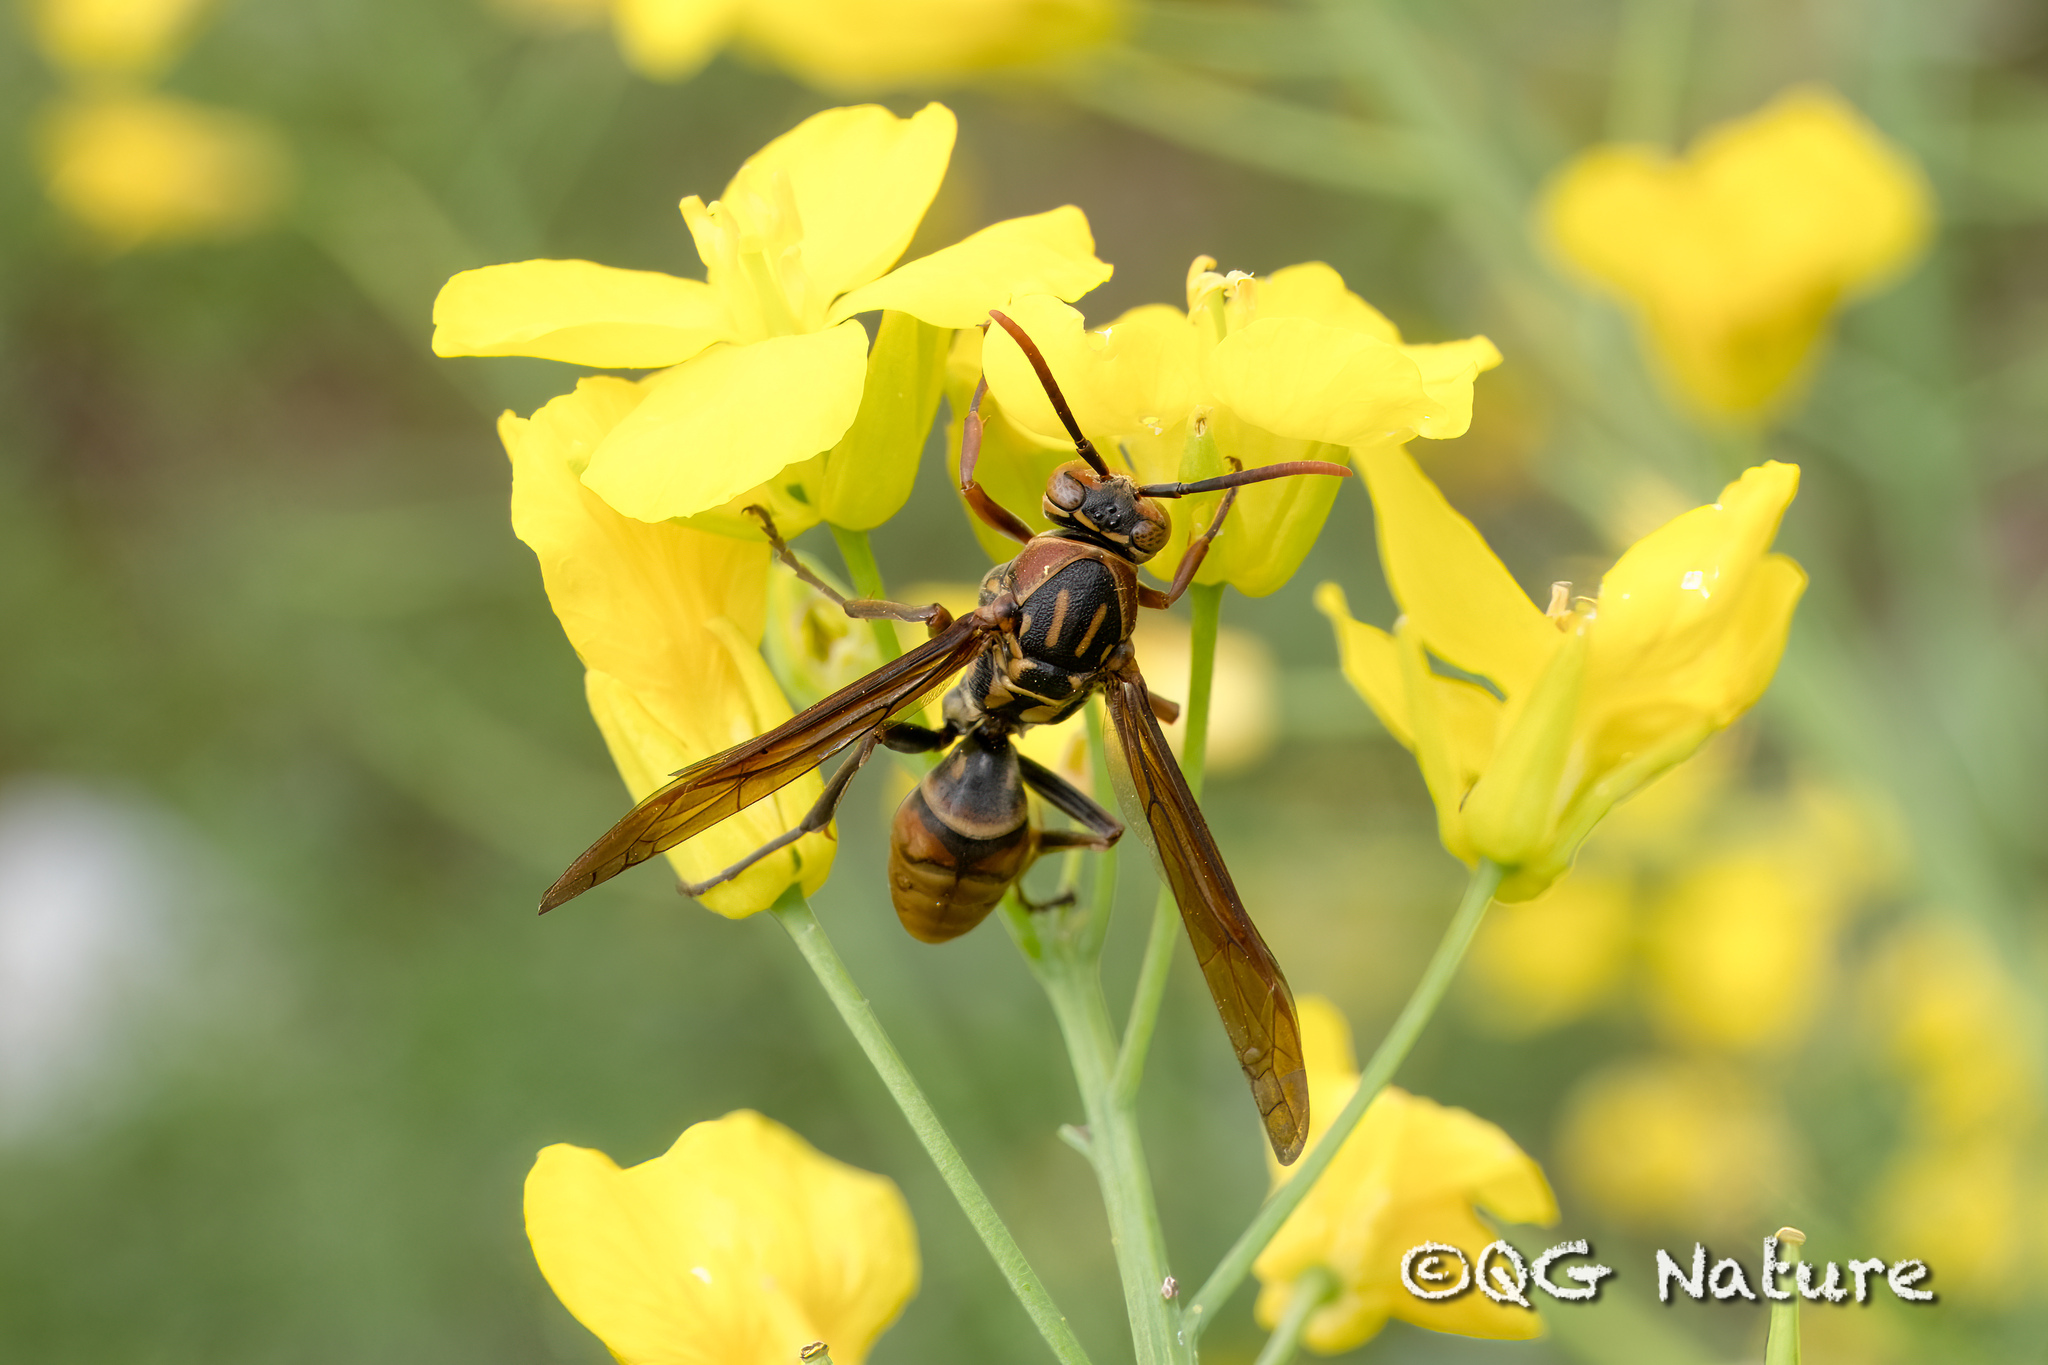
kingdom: Animalia
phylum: Arthropoda
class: Insecta
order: Hymenoptera
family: Eumenidae
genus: Polistes
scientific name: Polistes rothneyi
